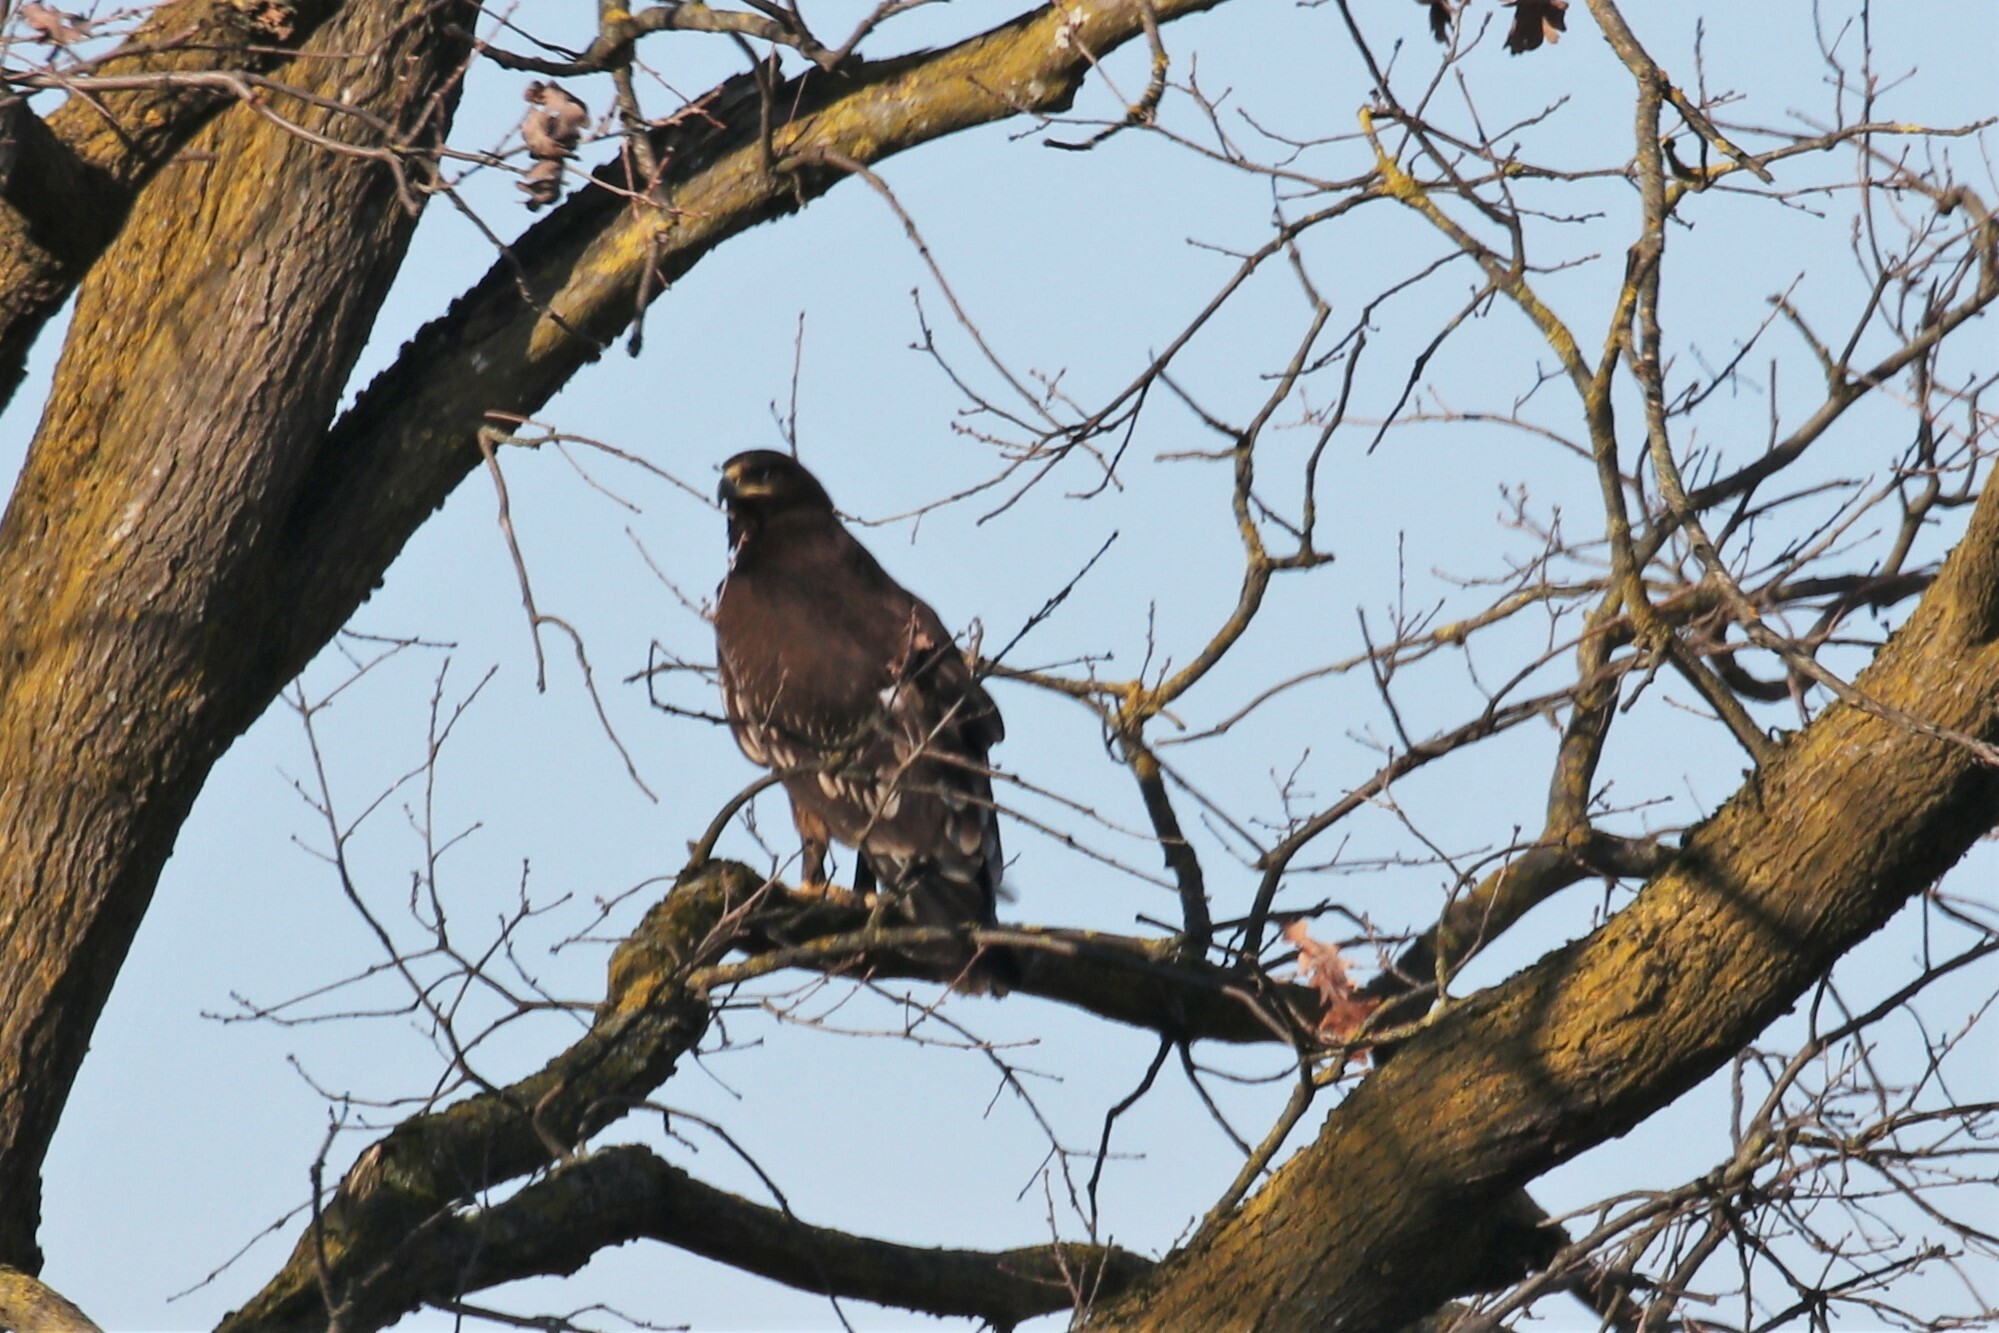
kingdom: Animalia
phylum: Chordata
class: Aves
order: Accipitriformes
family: Accipitridae
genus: Aquila
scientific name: Aquila clanga
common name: Greater spotted eagle
